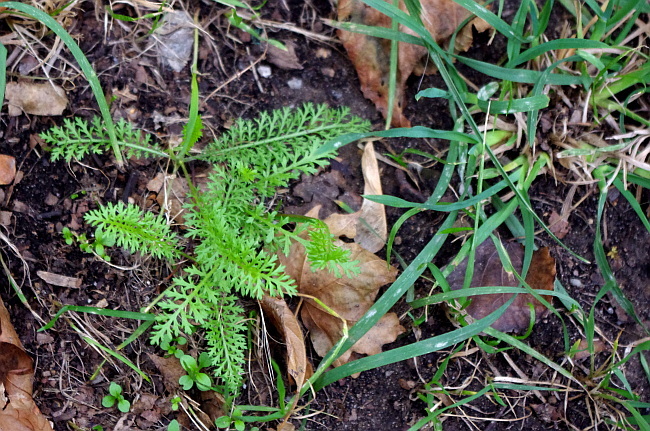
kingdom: Plantae
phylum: Tracheophyta
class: Magnoliopsida
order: Asterales
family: Asteraceae
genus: Achillea
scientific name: Achillea millefolium
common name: Yarrow
